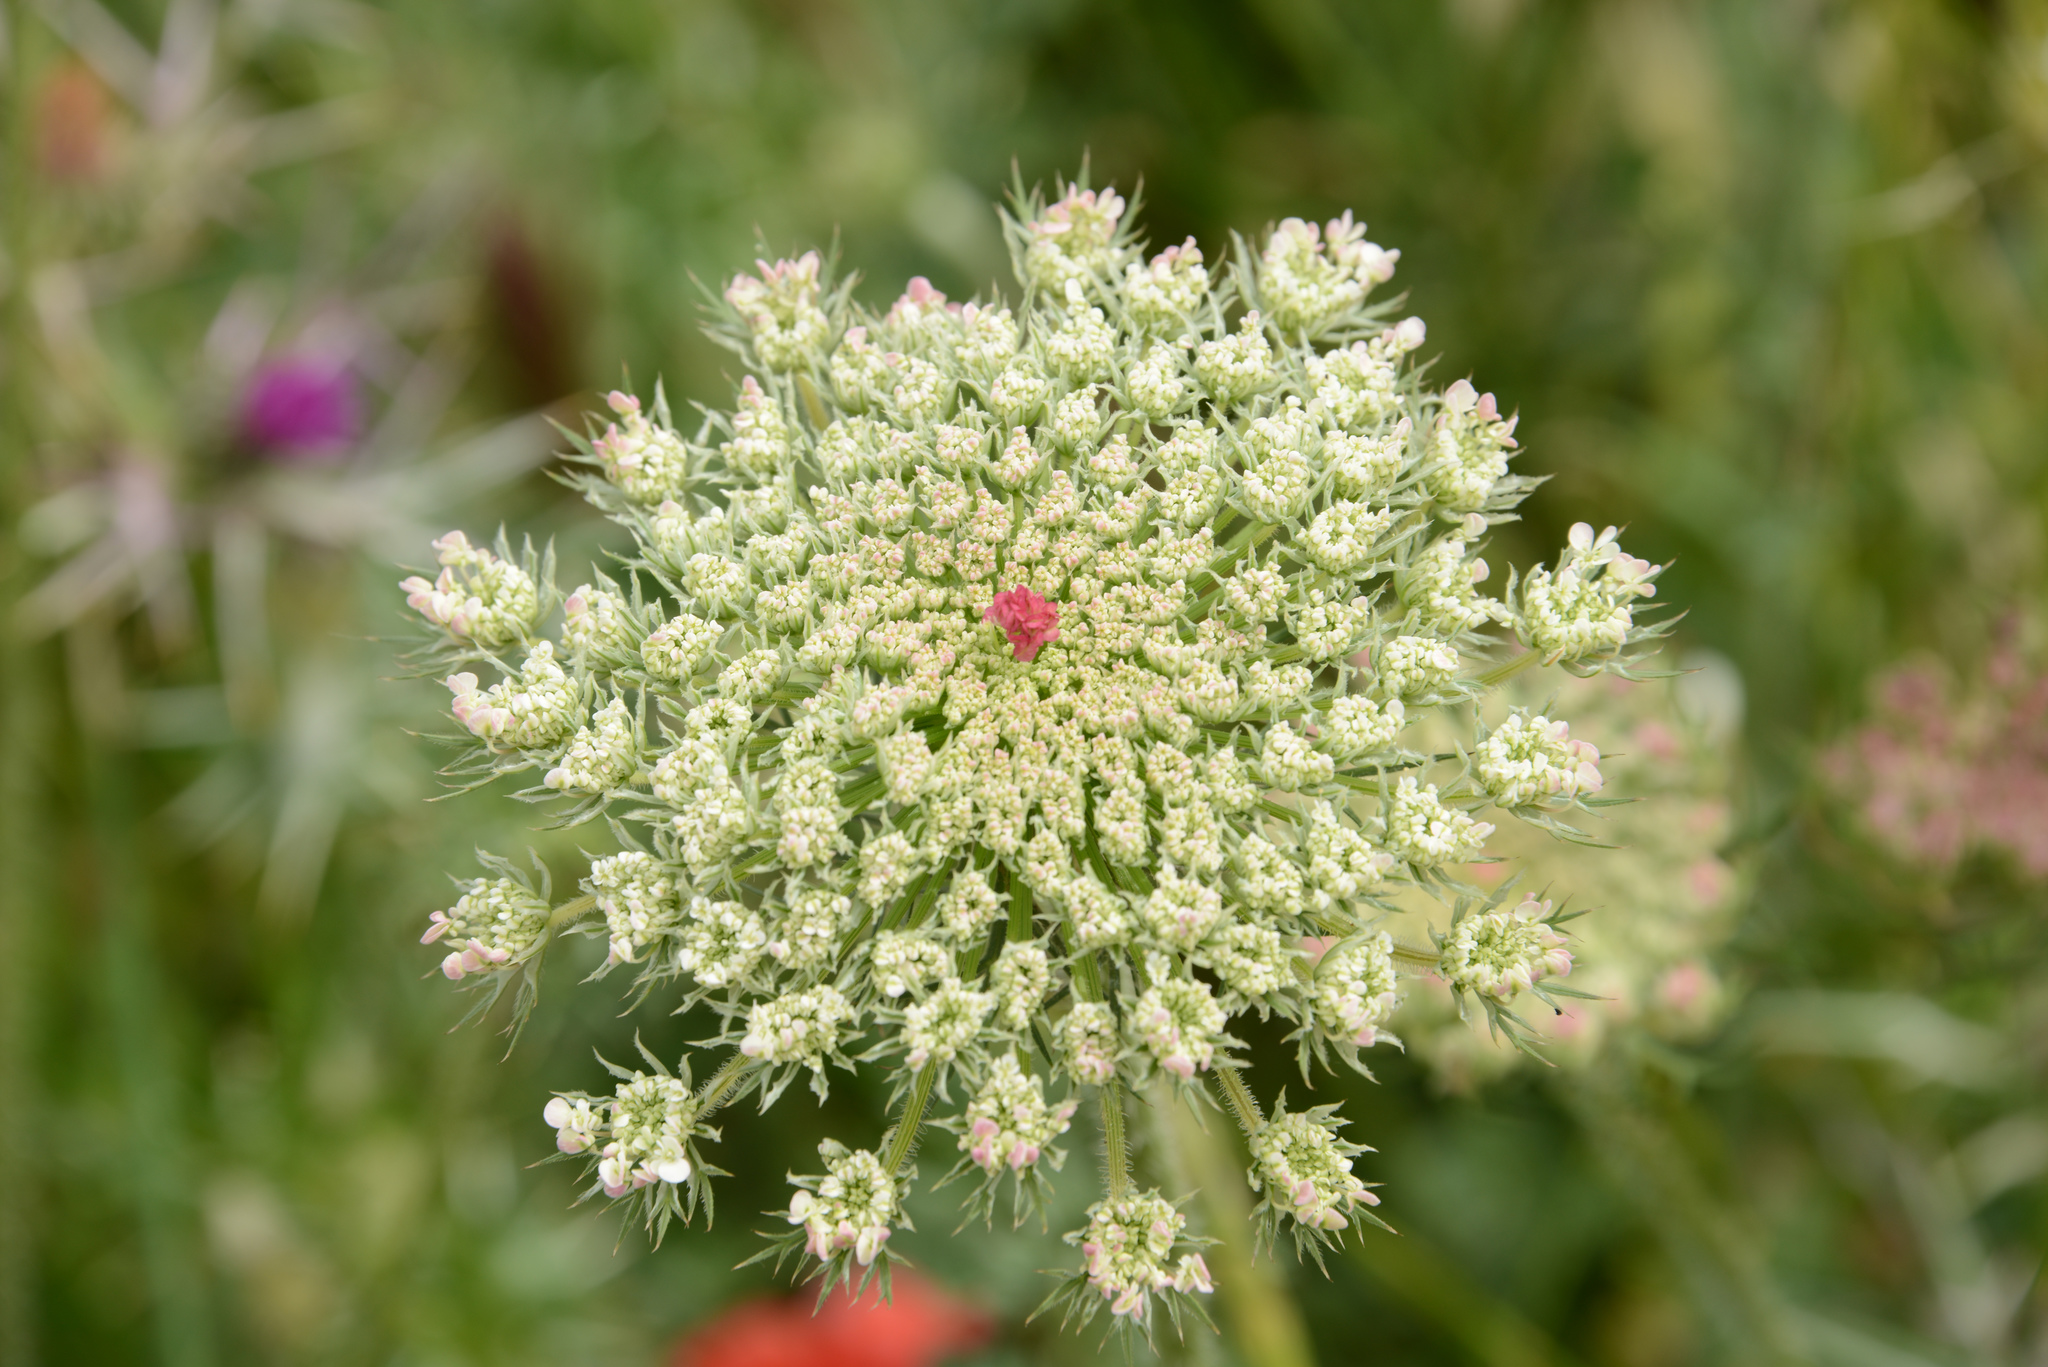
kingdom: Plantae
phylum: Tracheophyta
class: Magnoliopsida
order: Apiales
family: Apiaceae
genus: Daucus
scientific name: Daucus carota
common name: Wild carrot
